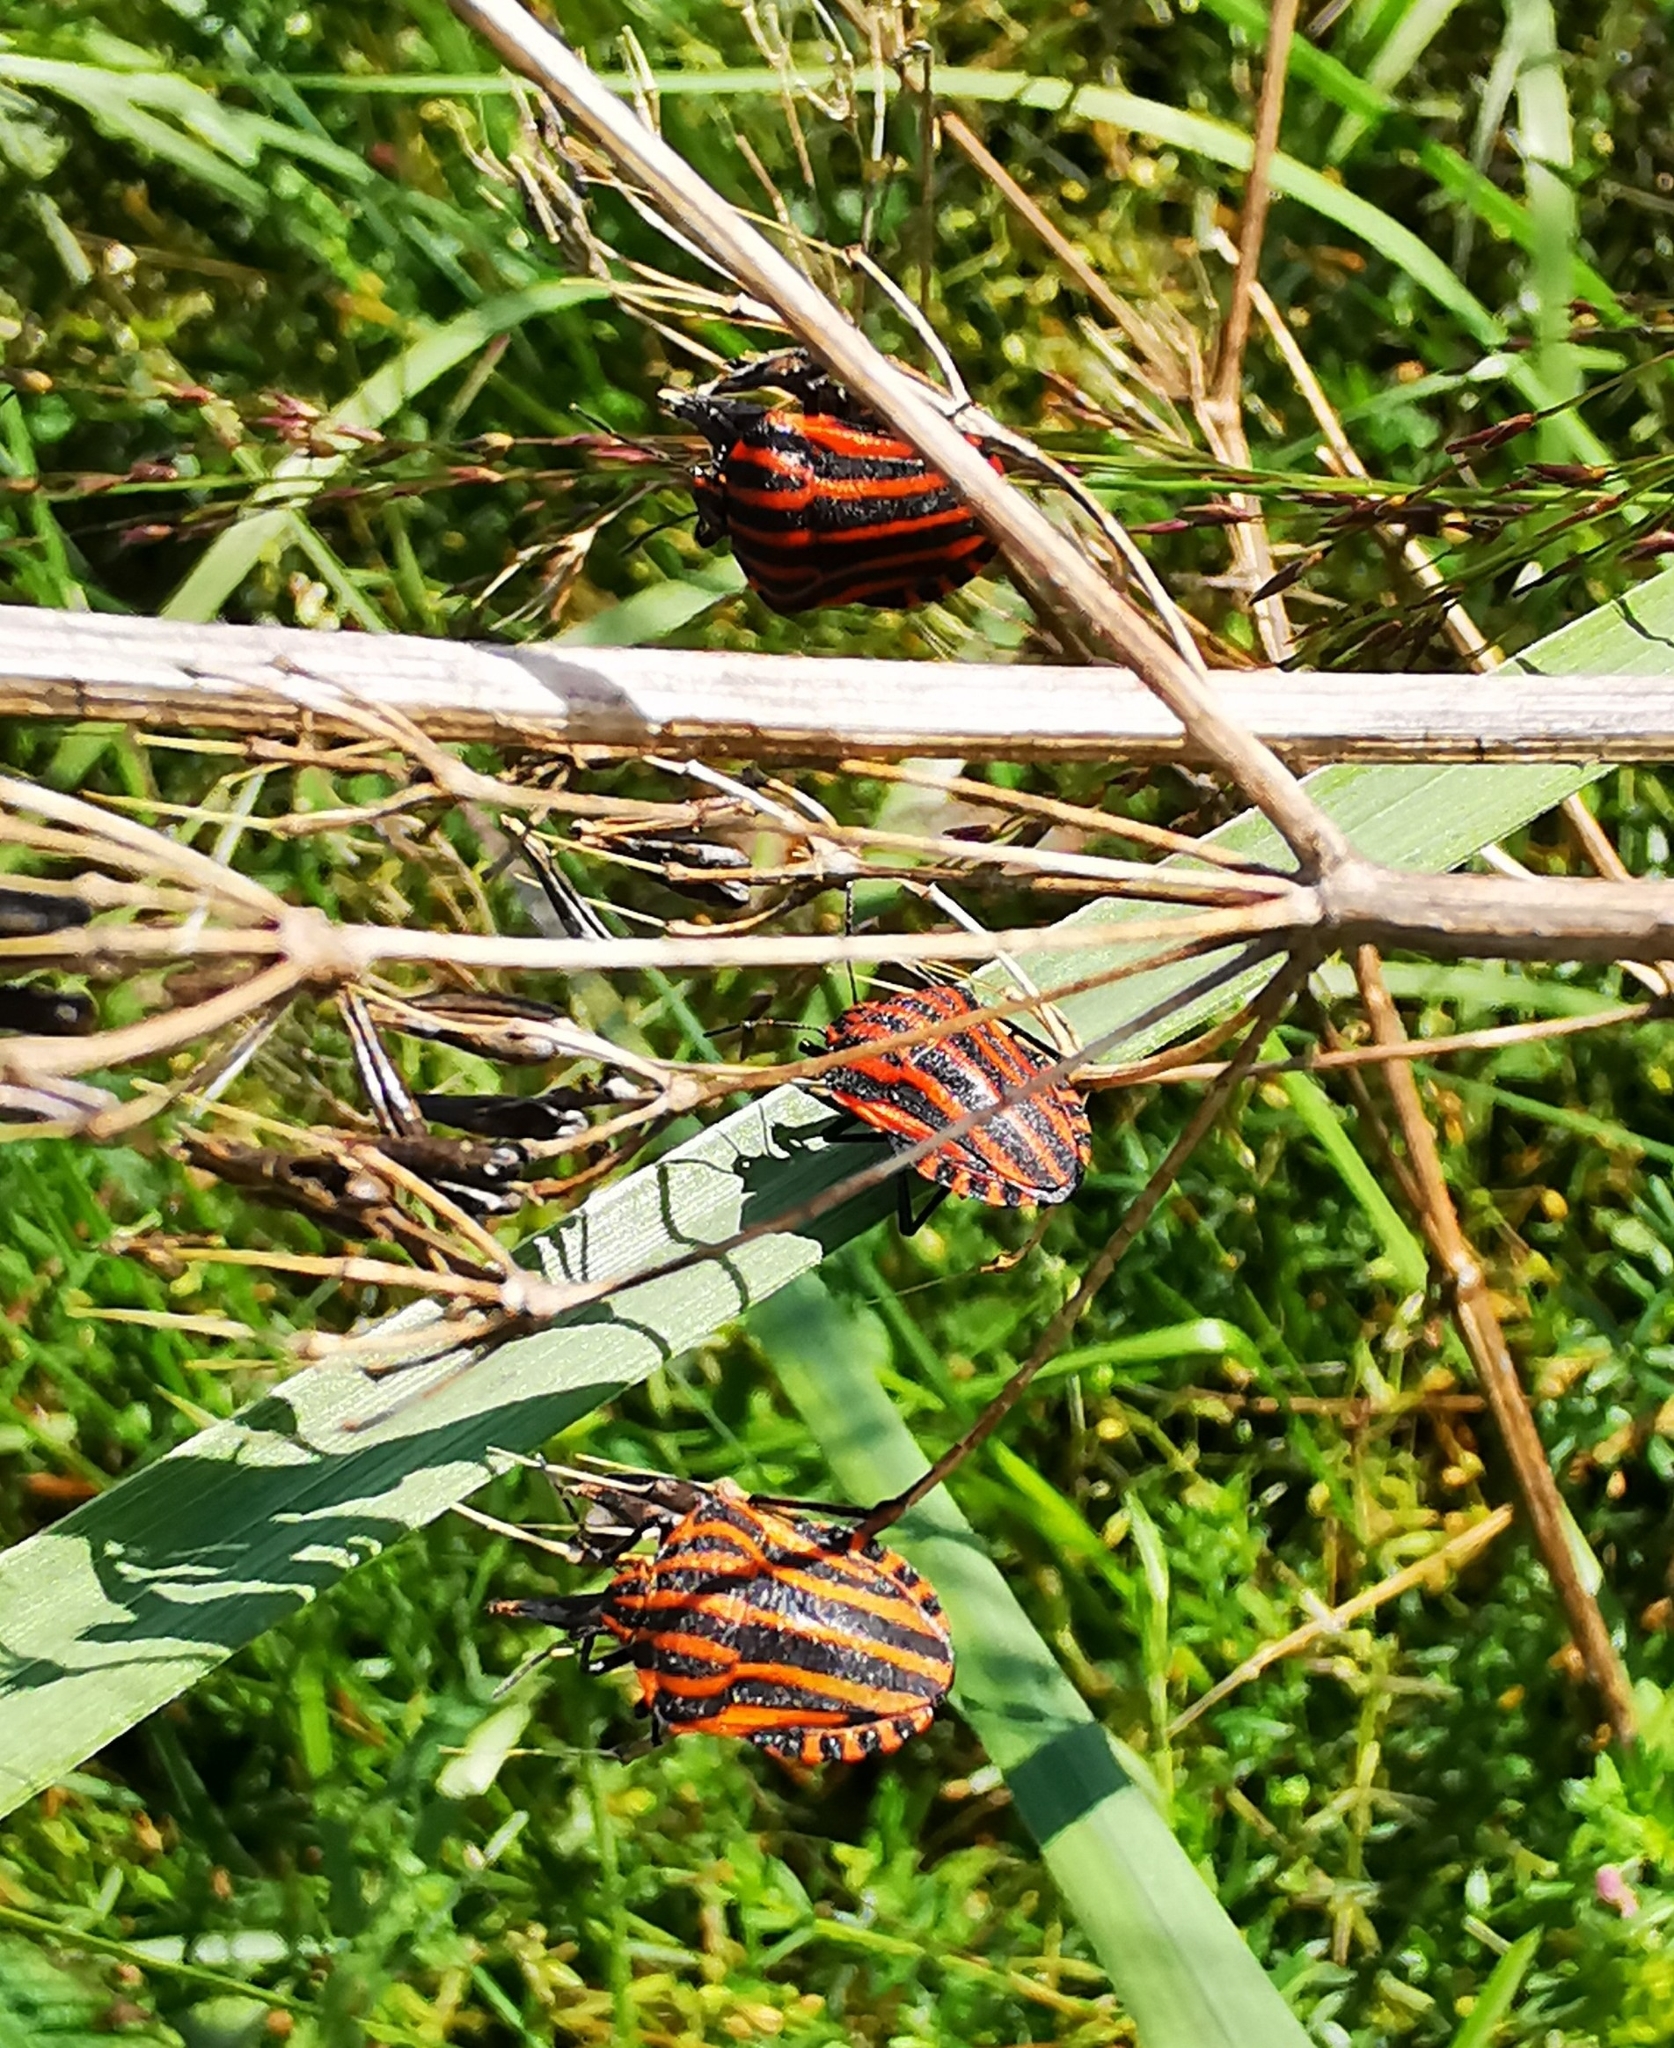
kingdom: Animalia
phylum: Arthropoda
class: Insecta
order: Hemiptera
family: Pentatomidae
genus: Graphosoma
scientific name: Graphosoma italicum
